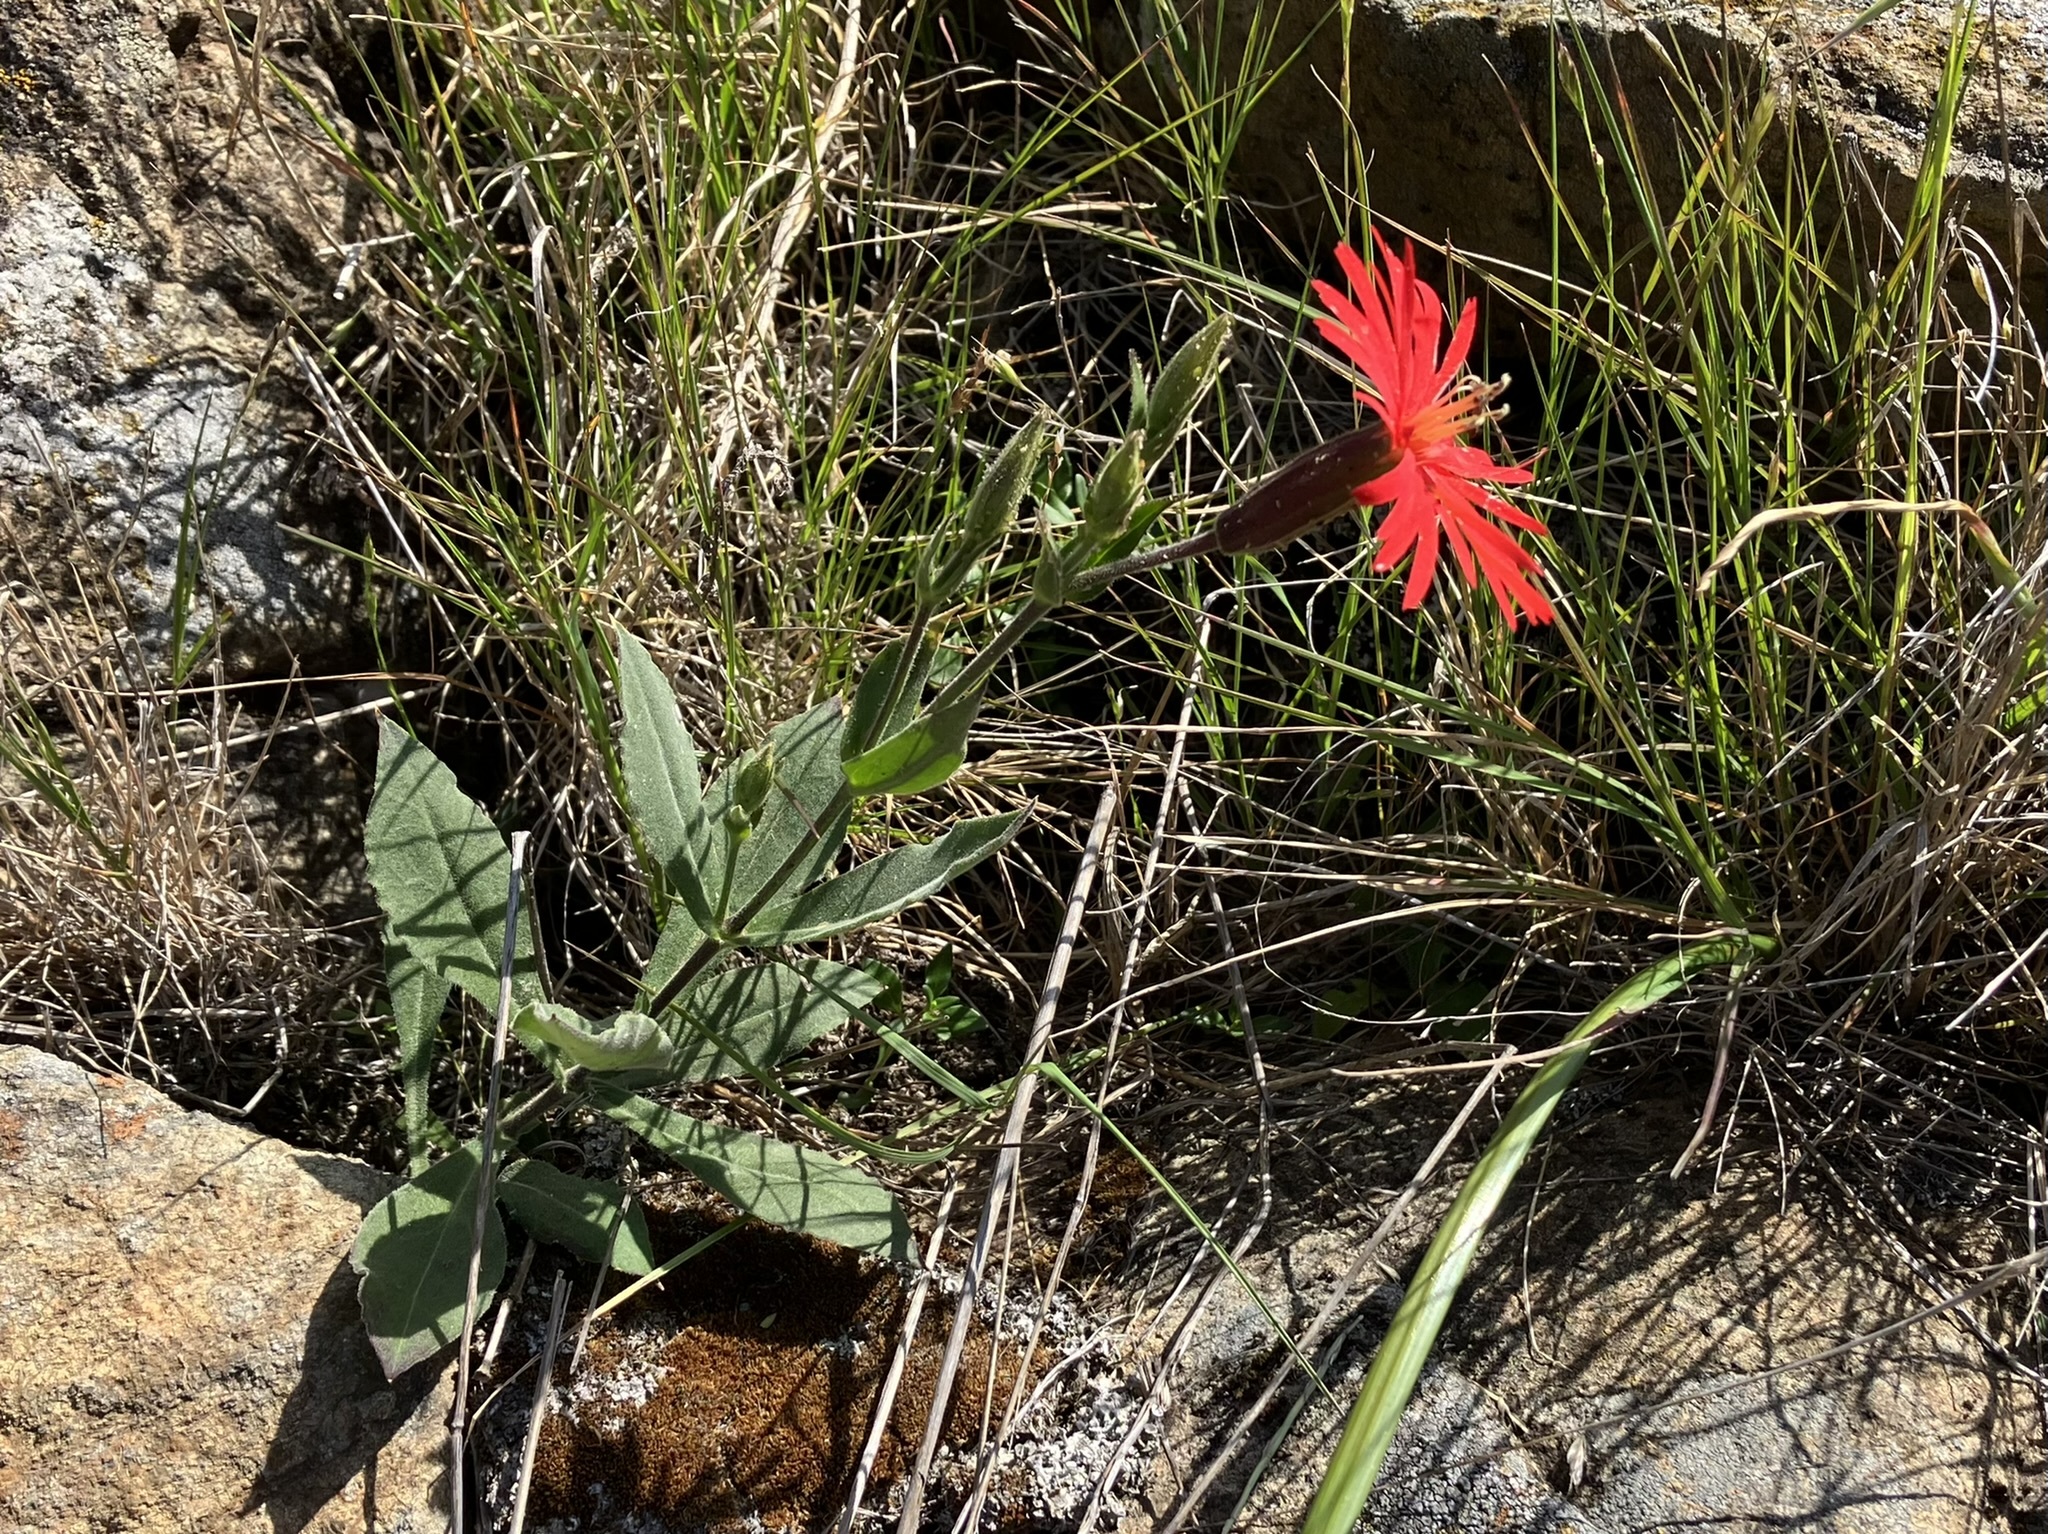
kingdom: Plantae
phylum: Tracheophyta
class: Magnoliopsida
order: Caryophyllales
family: Caryophyllaceae
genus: Silene
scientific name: Silene laciniata
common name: Indian-pink
